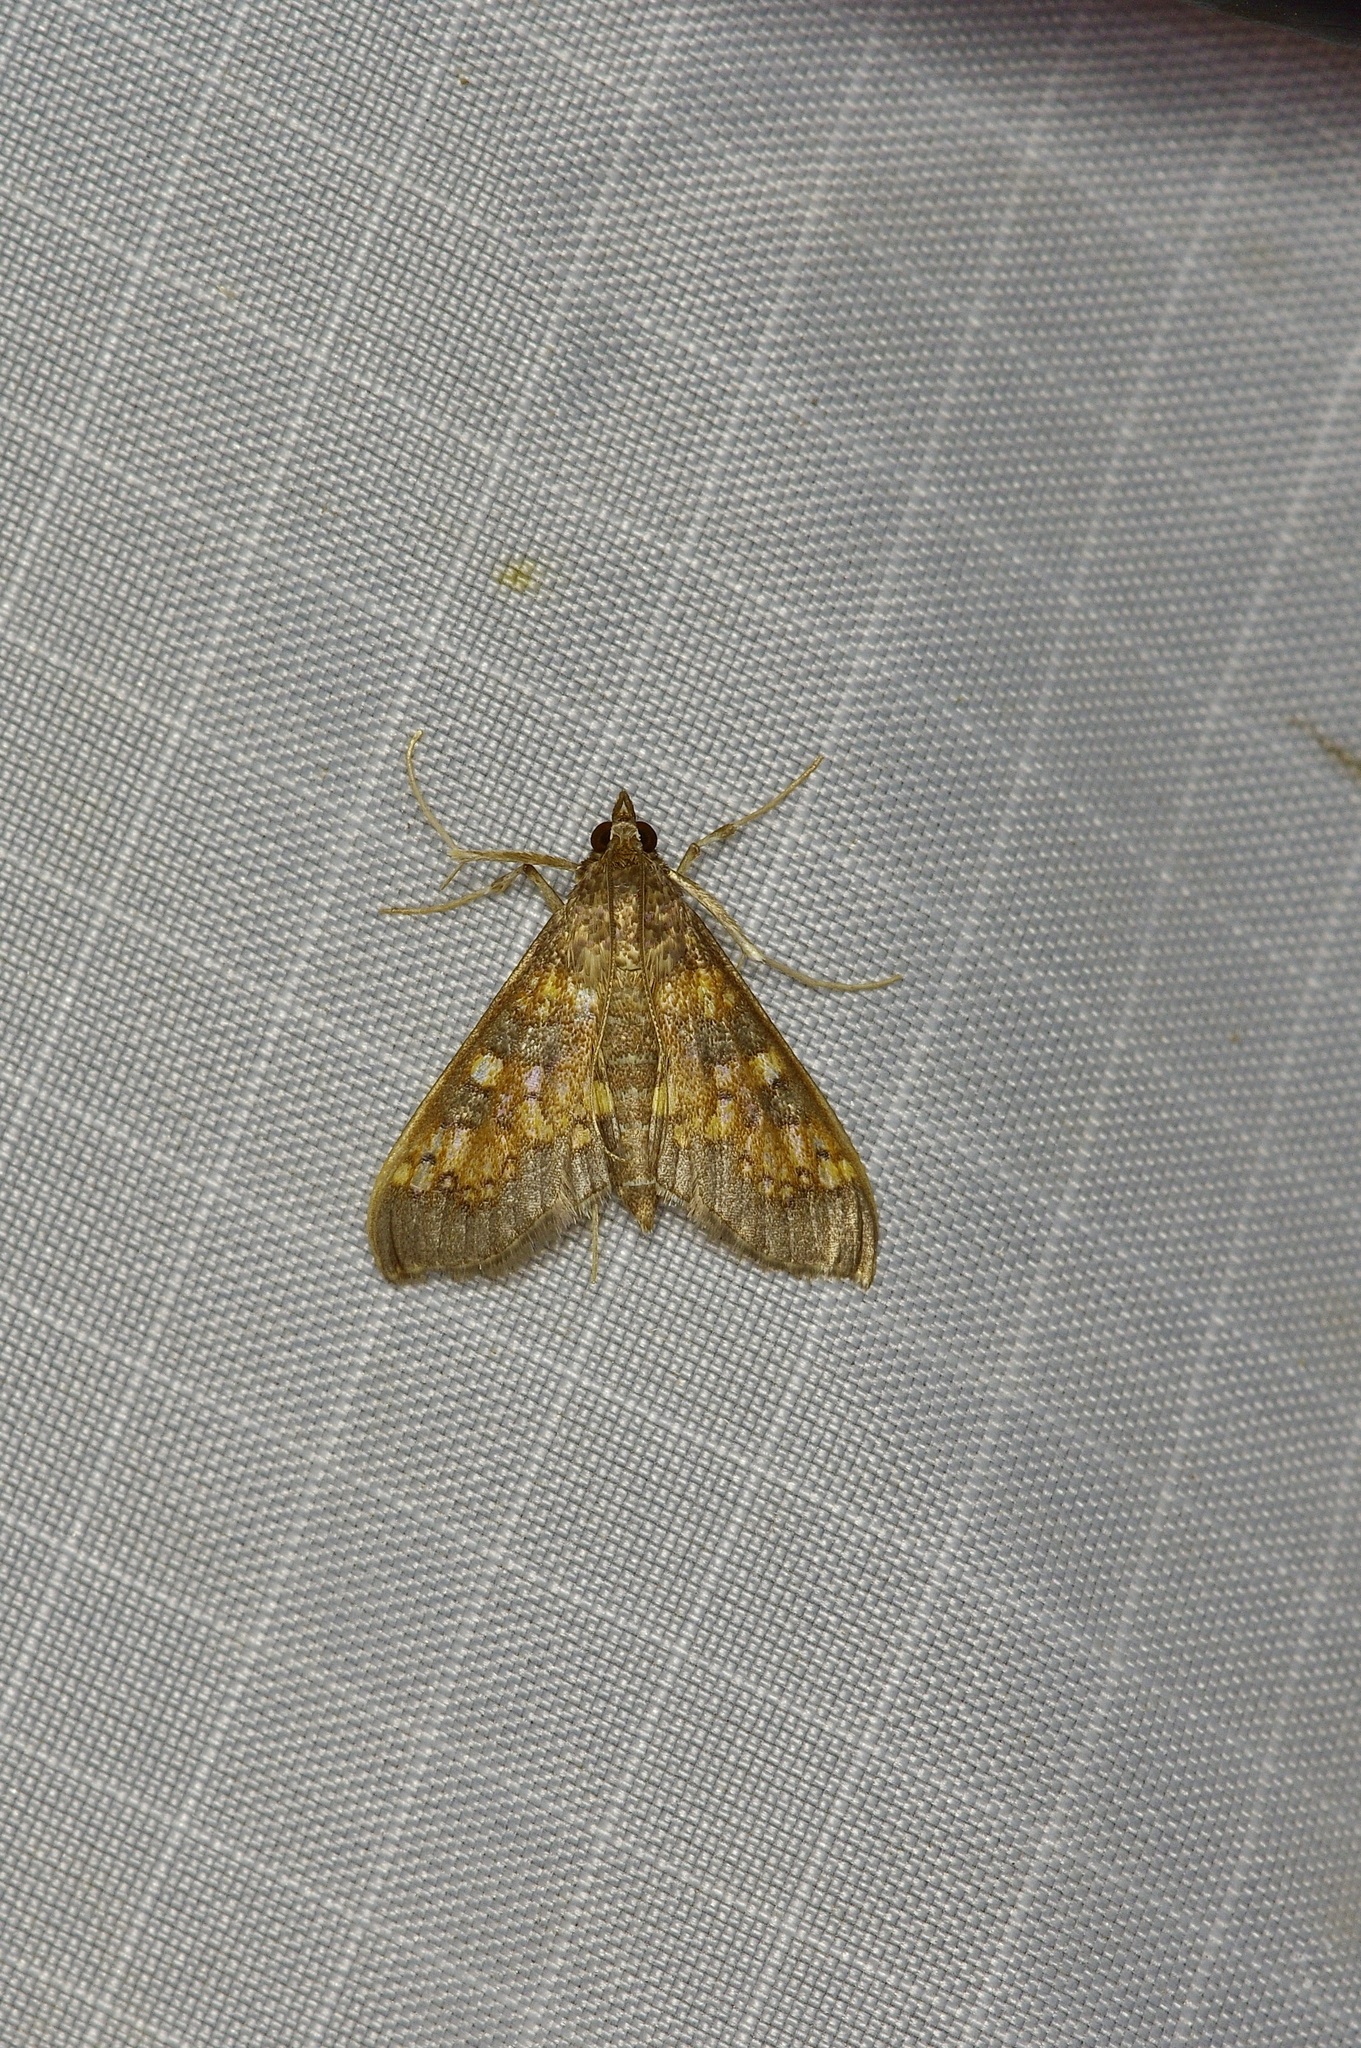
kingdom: Animalia
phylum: Arthropoda
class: Insecta
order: Lepidoptera
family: Crambidae
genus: Epipagis
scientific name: Epipagis adipaloides
